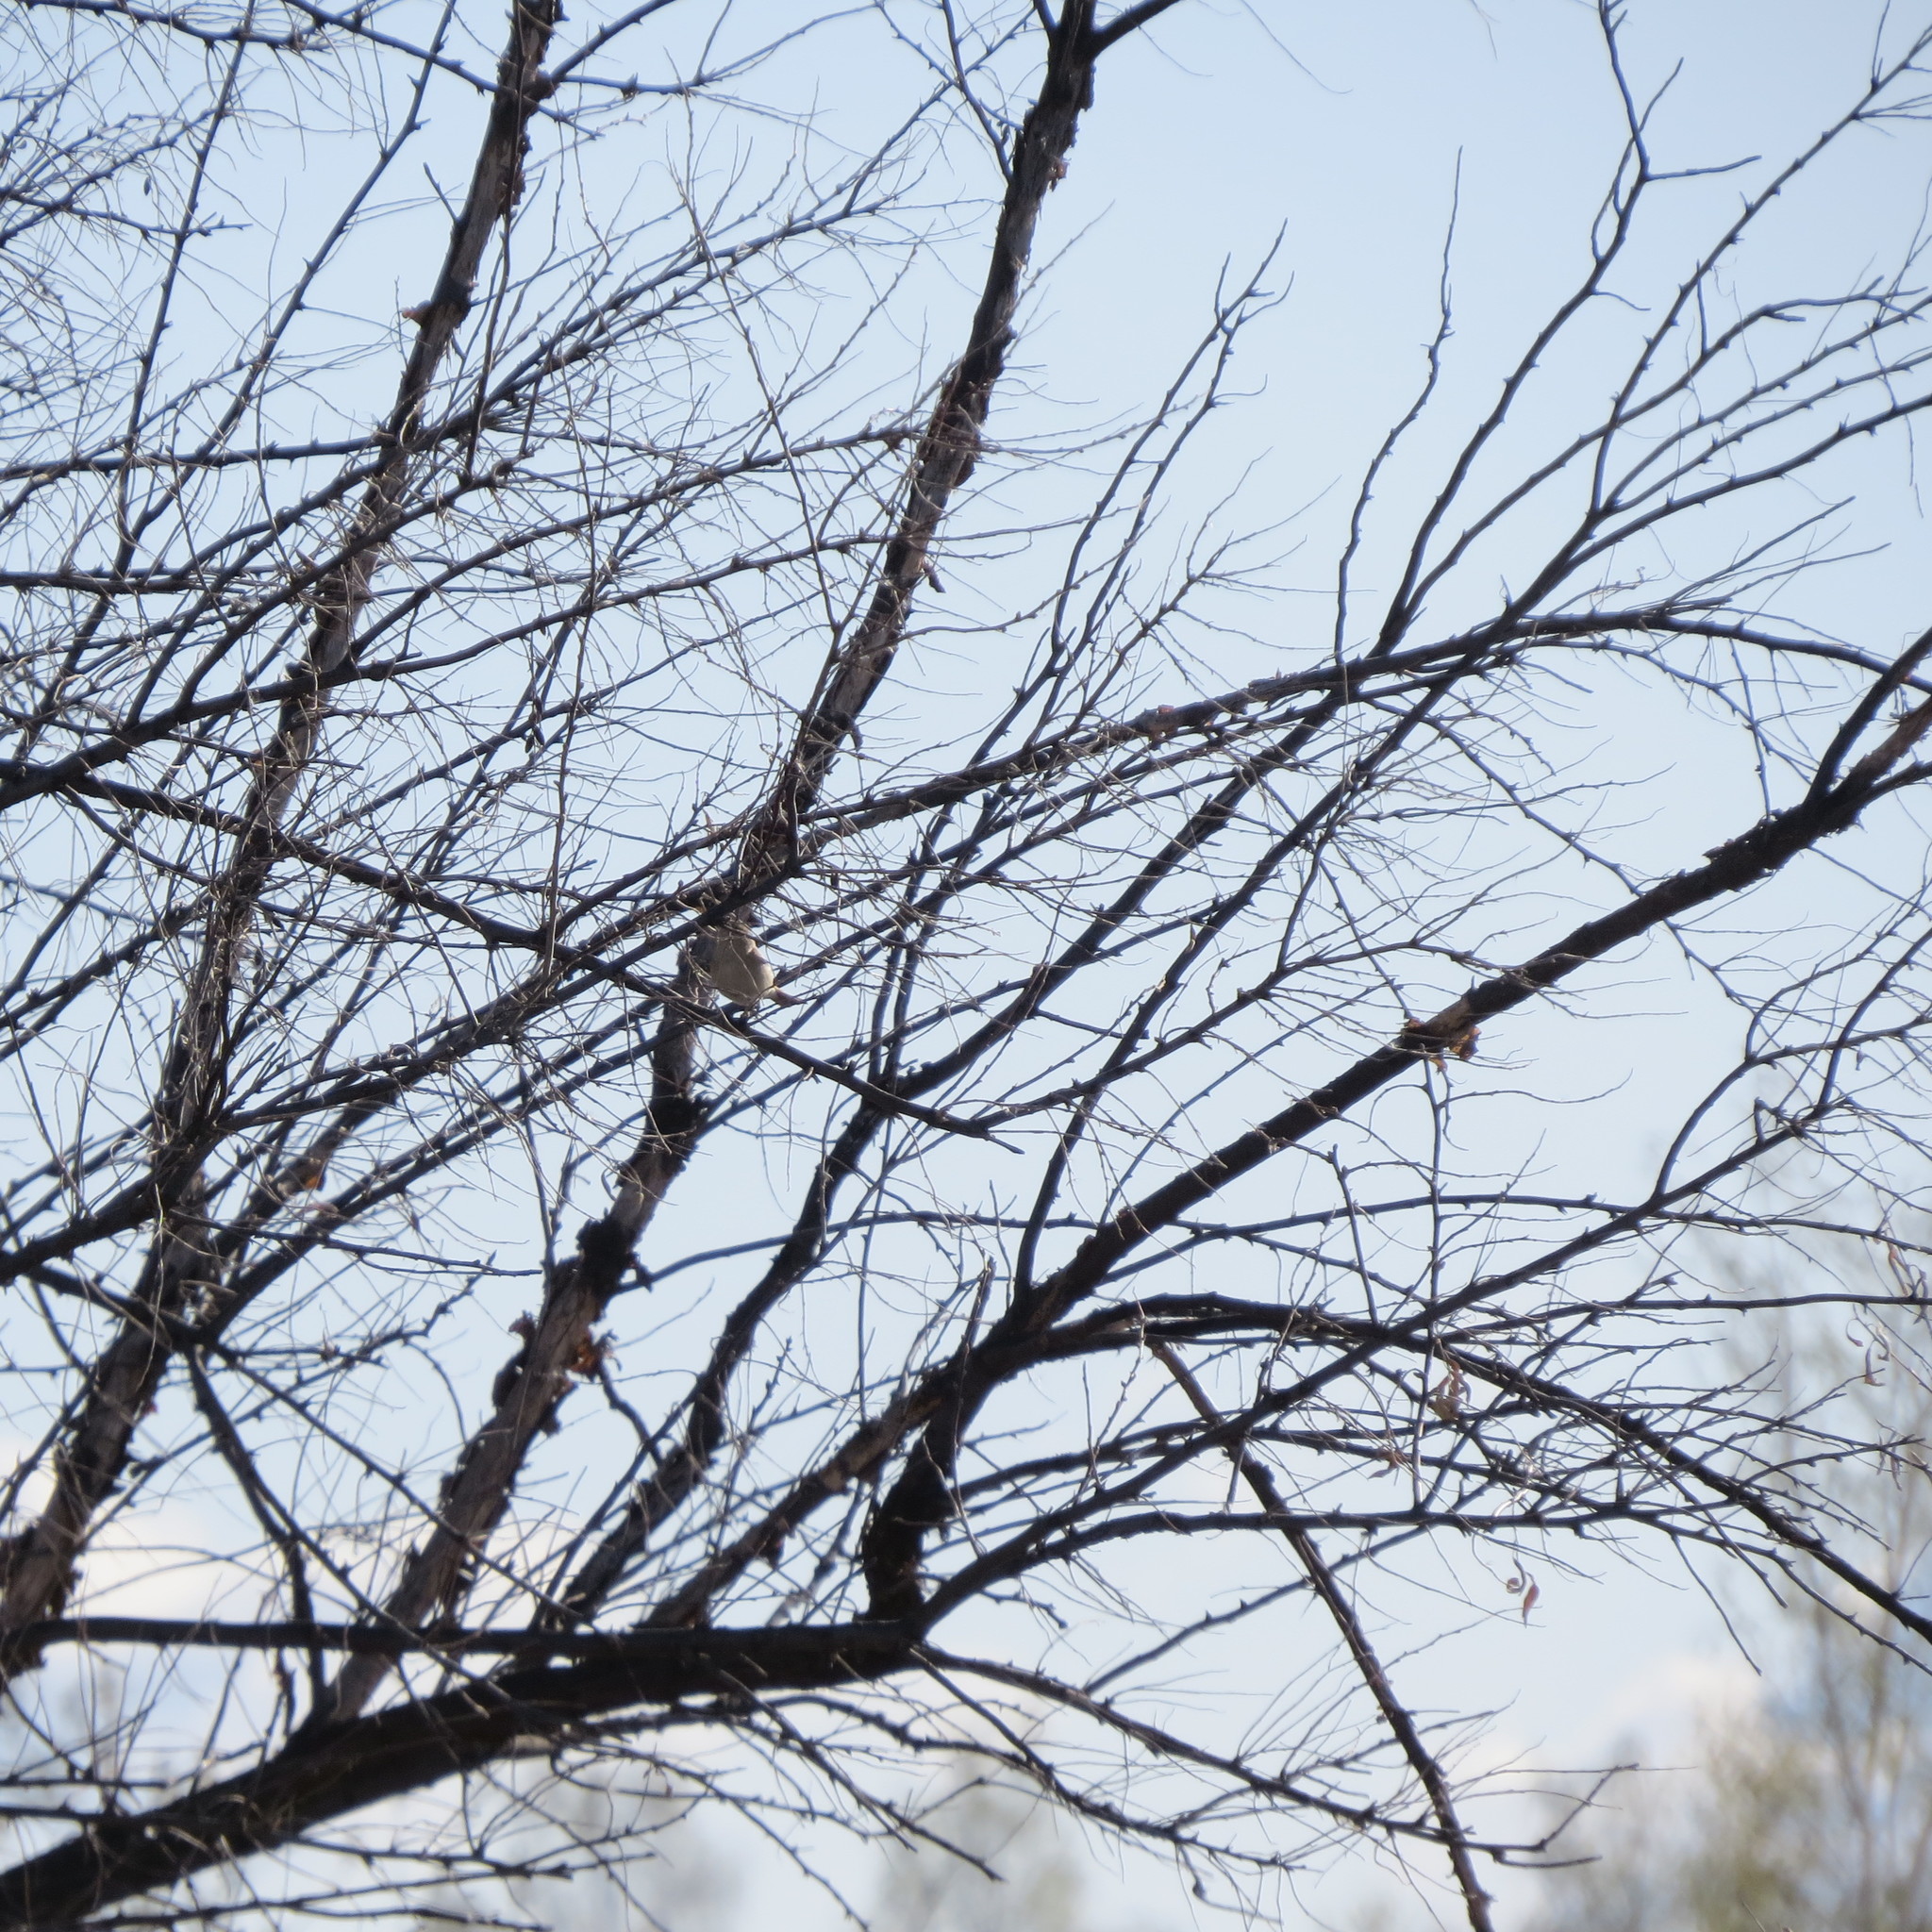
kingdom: Animalia
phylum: Chordata
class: Aves
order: Passeriformes
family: Phylloscopidae
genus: Phylloscopus
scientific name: Phylloscopus collybita
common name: Common chiffchaff
